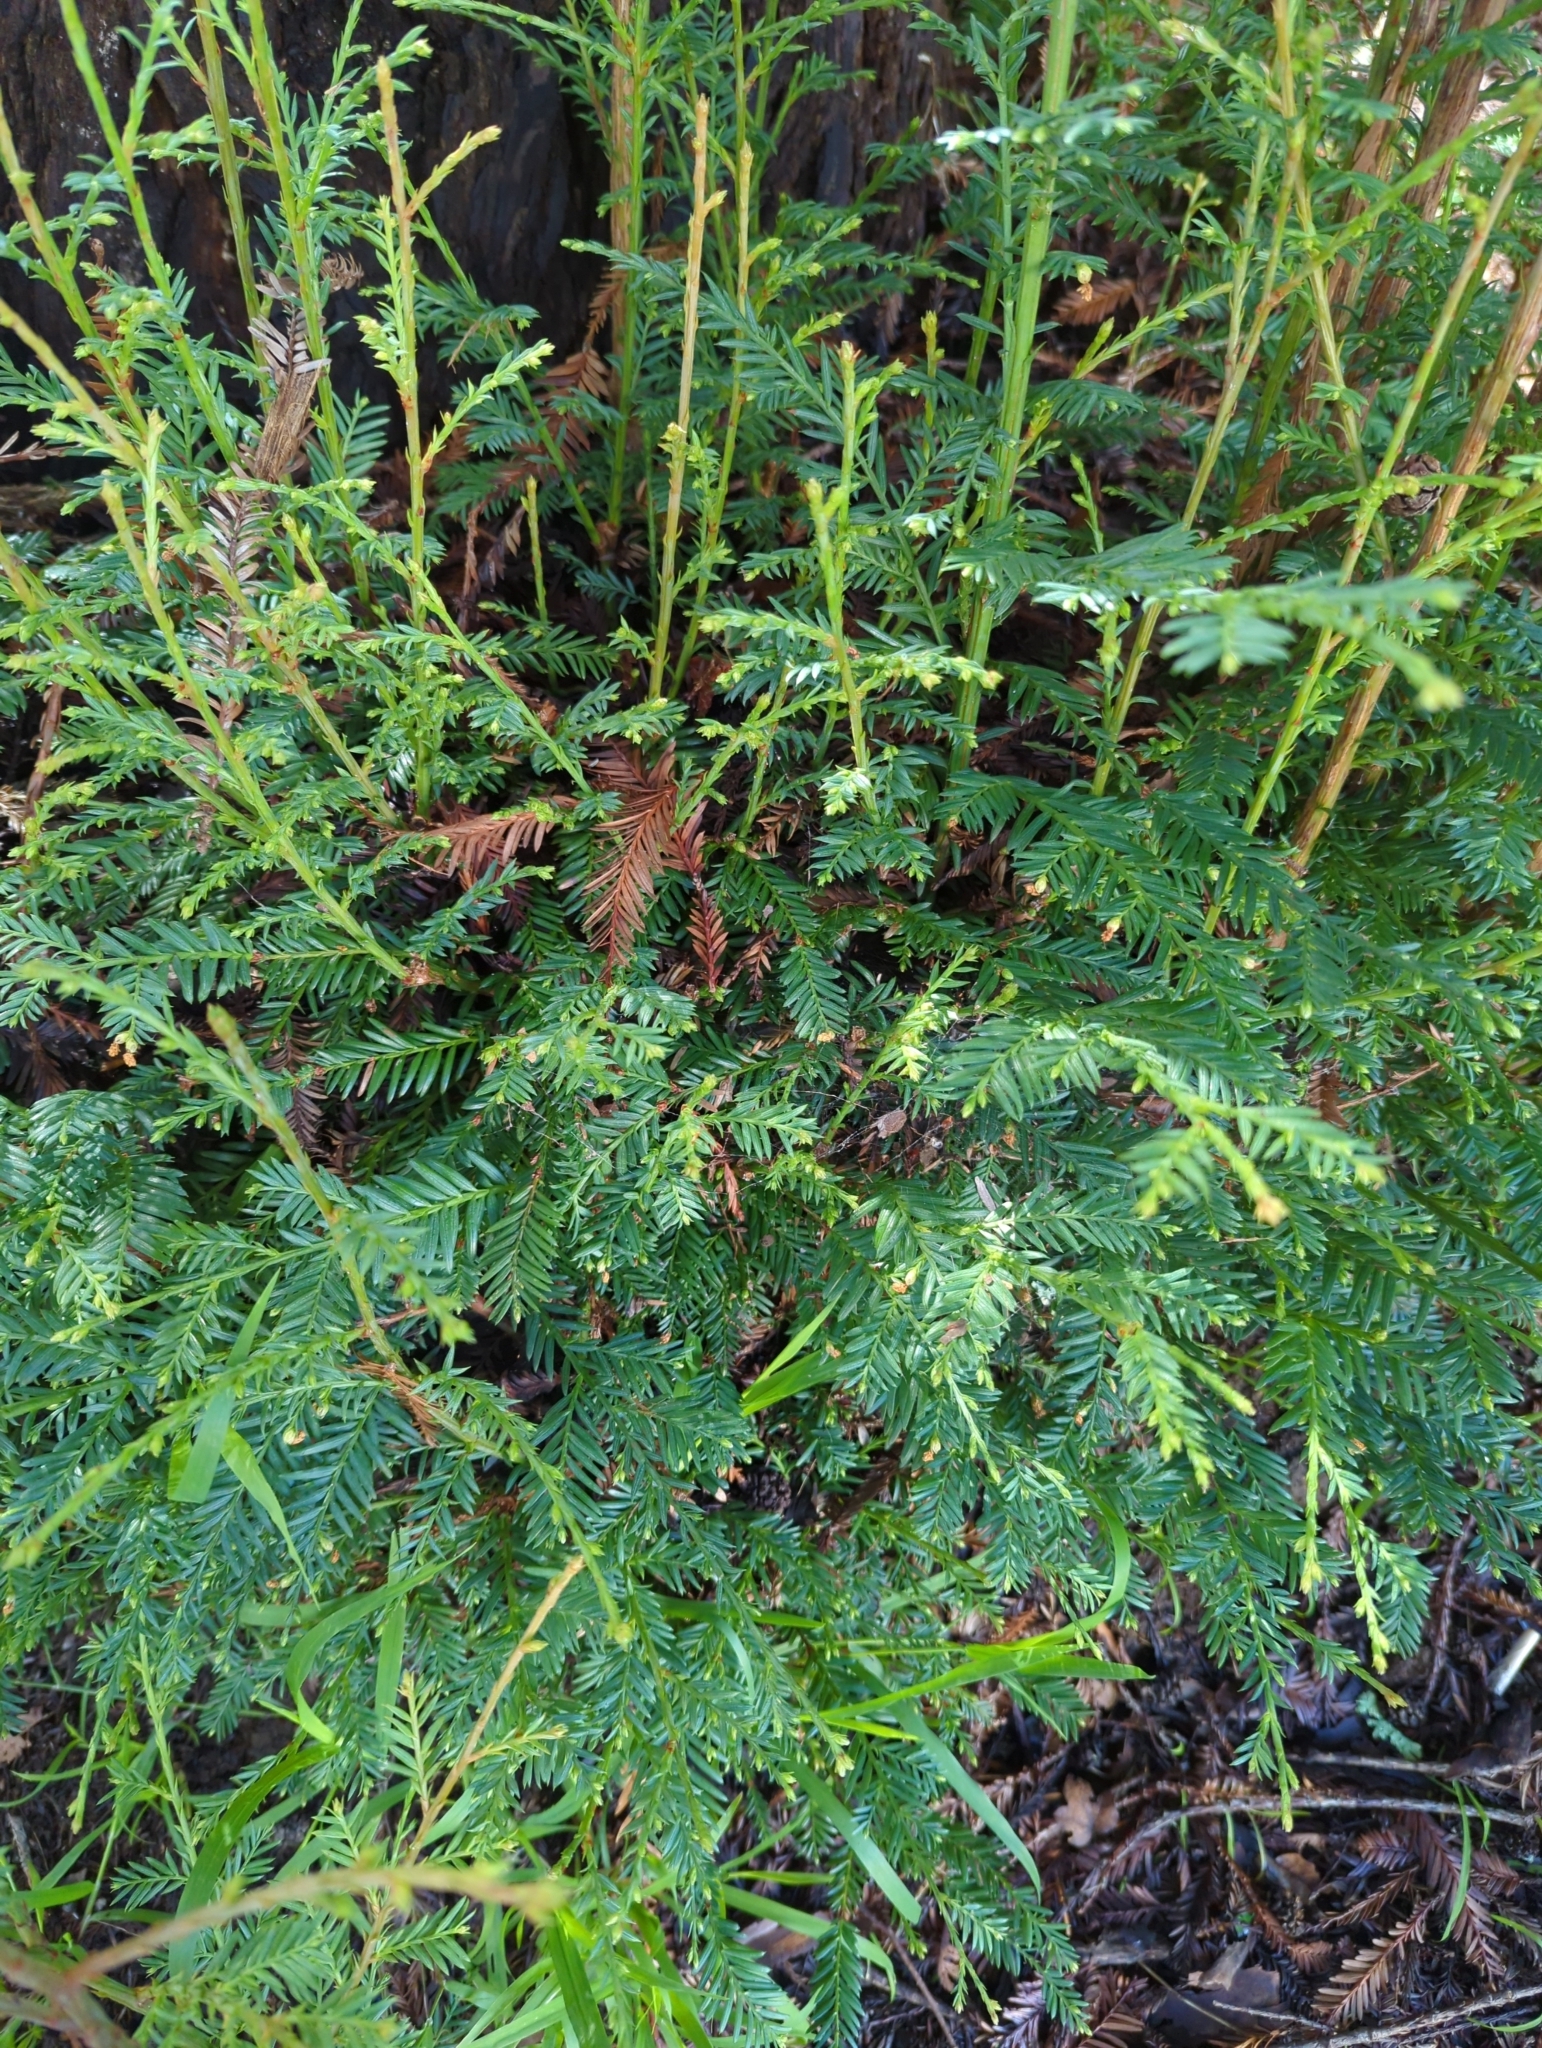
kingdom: Plantae
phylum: Tracheophyta
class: Pinopsida
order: Pinales
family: Cupressaceae
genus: Sequoia
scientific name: Sequoia sempervirens
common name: Coast redwood
